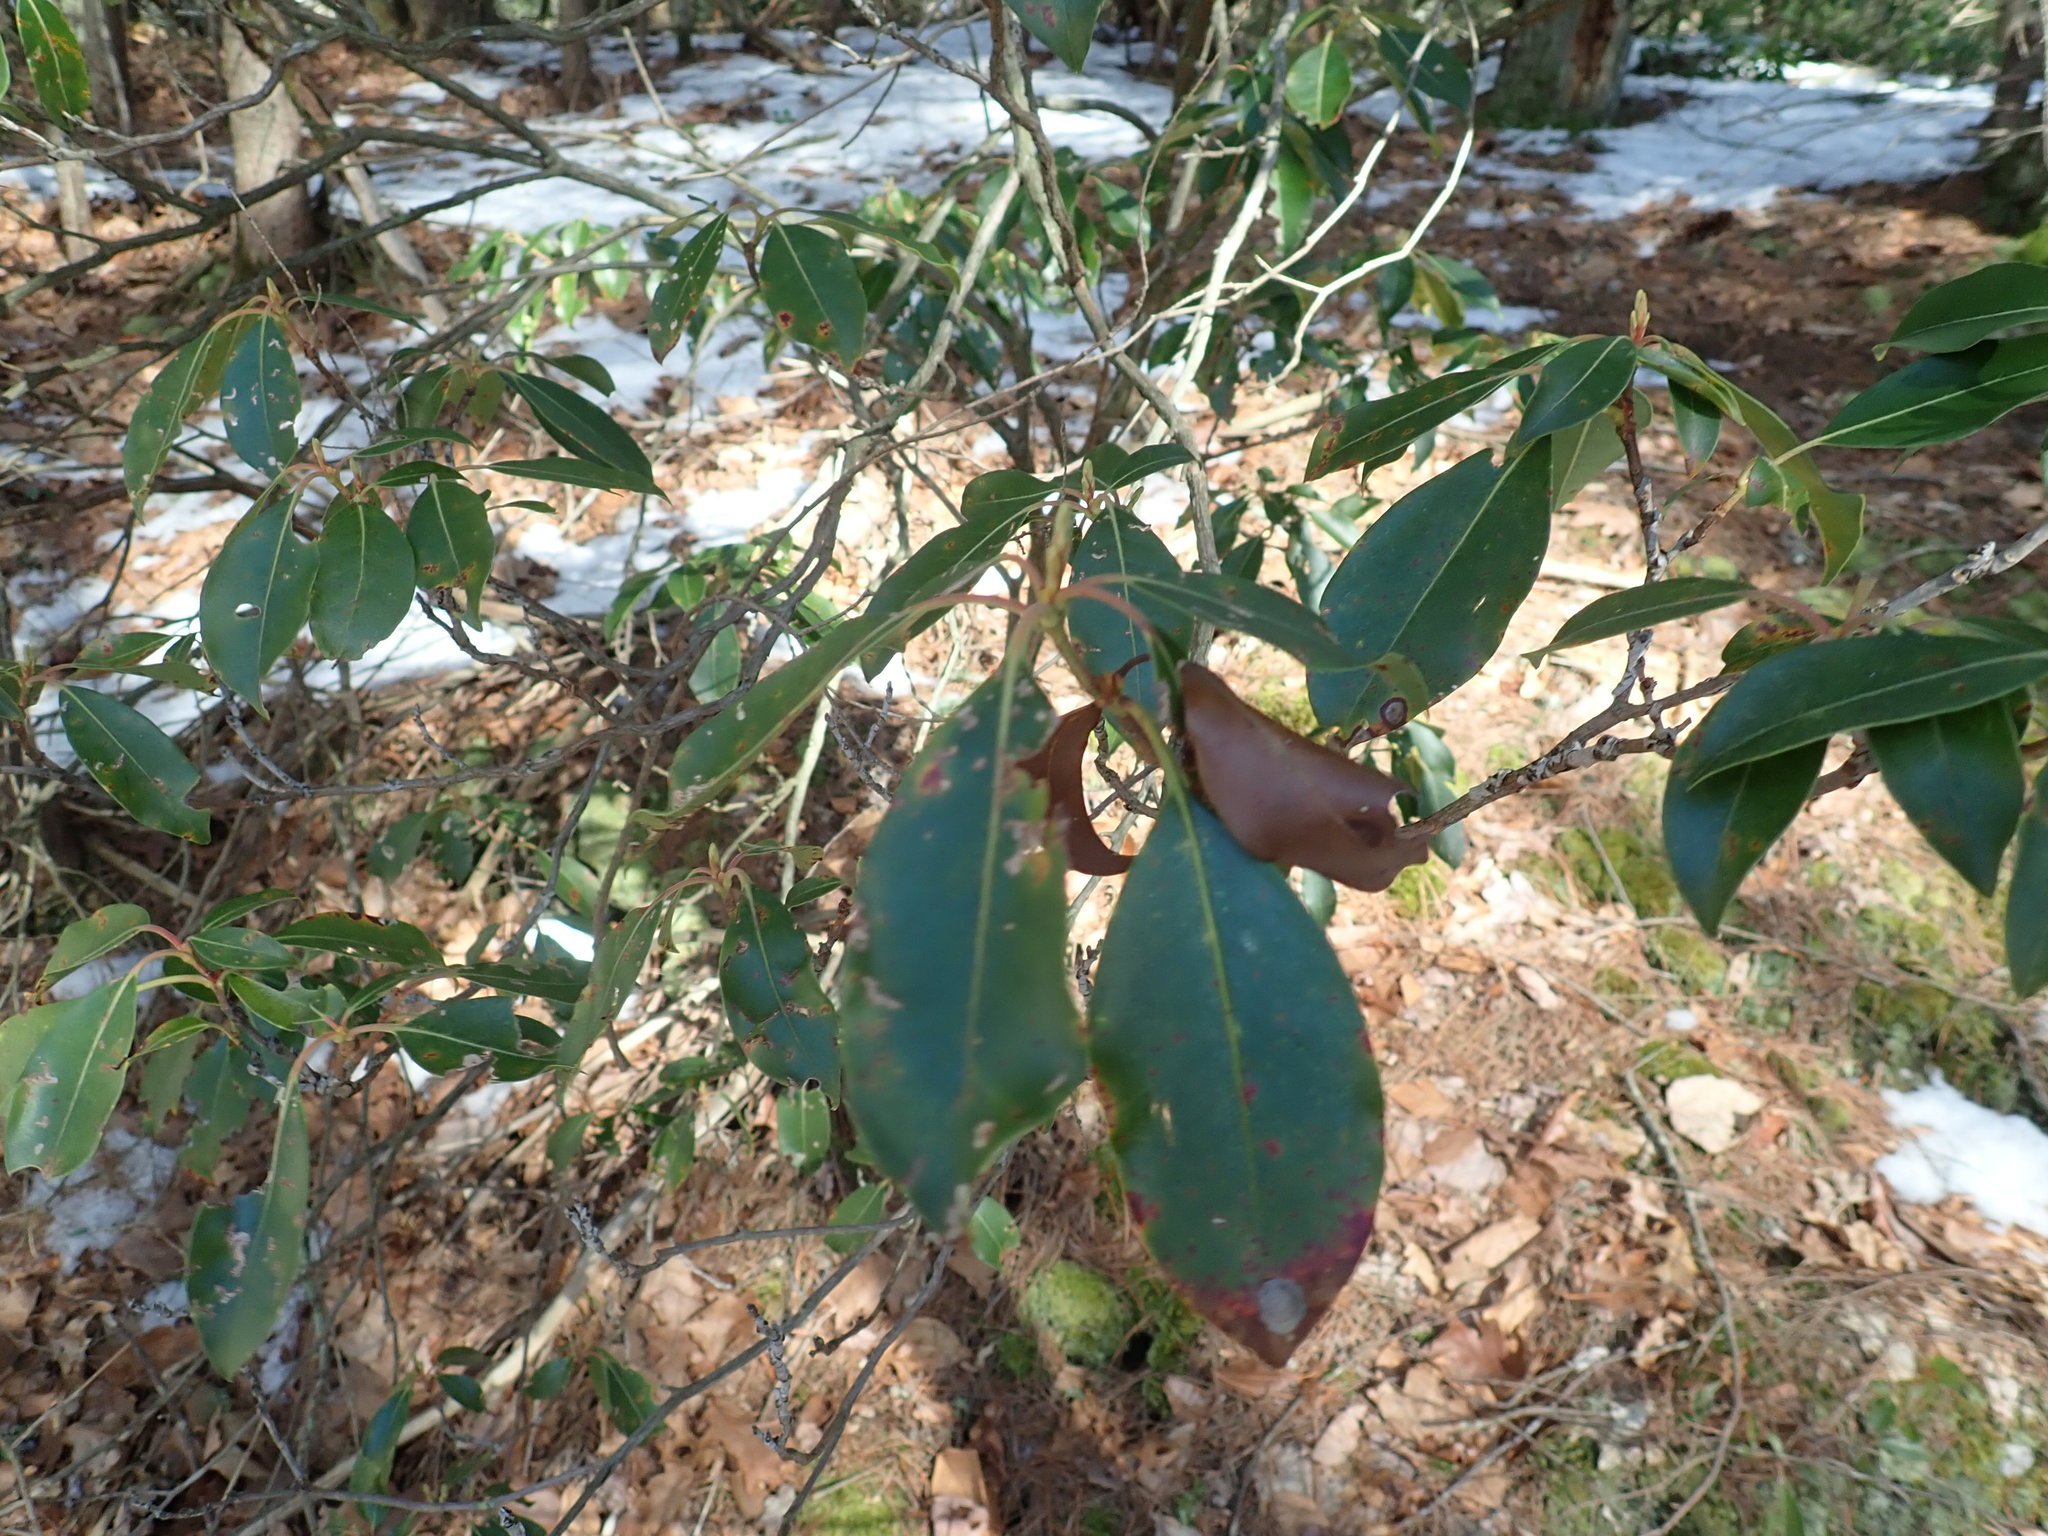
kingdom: Plantae
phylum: Tracheophyta
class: Magnoliopsida
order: Ericales
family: Ericaceae
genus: Kalmia
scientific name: Kalmia latifolia
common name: Mountain-laurel
